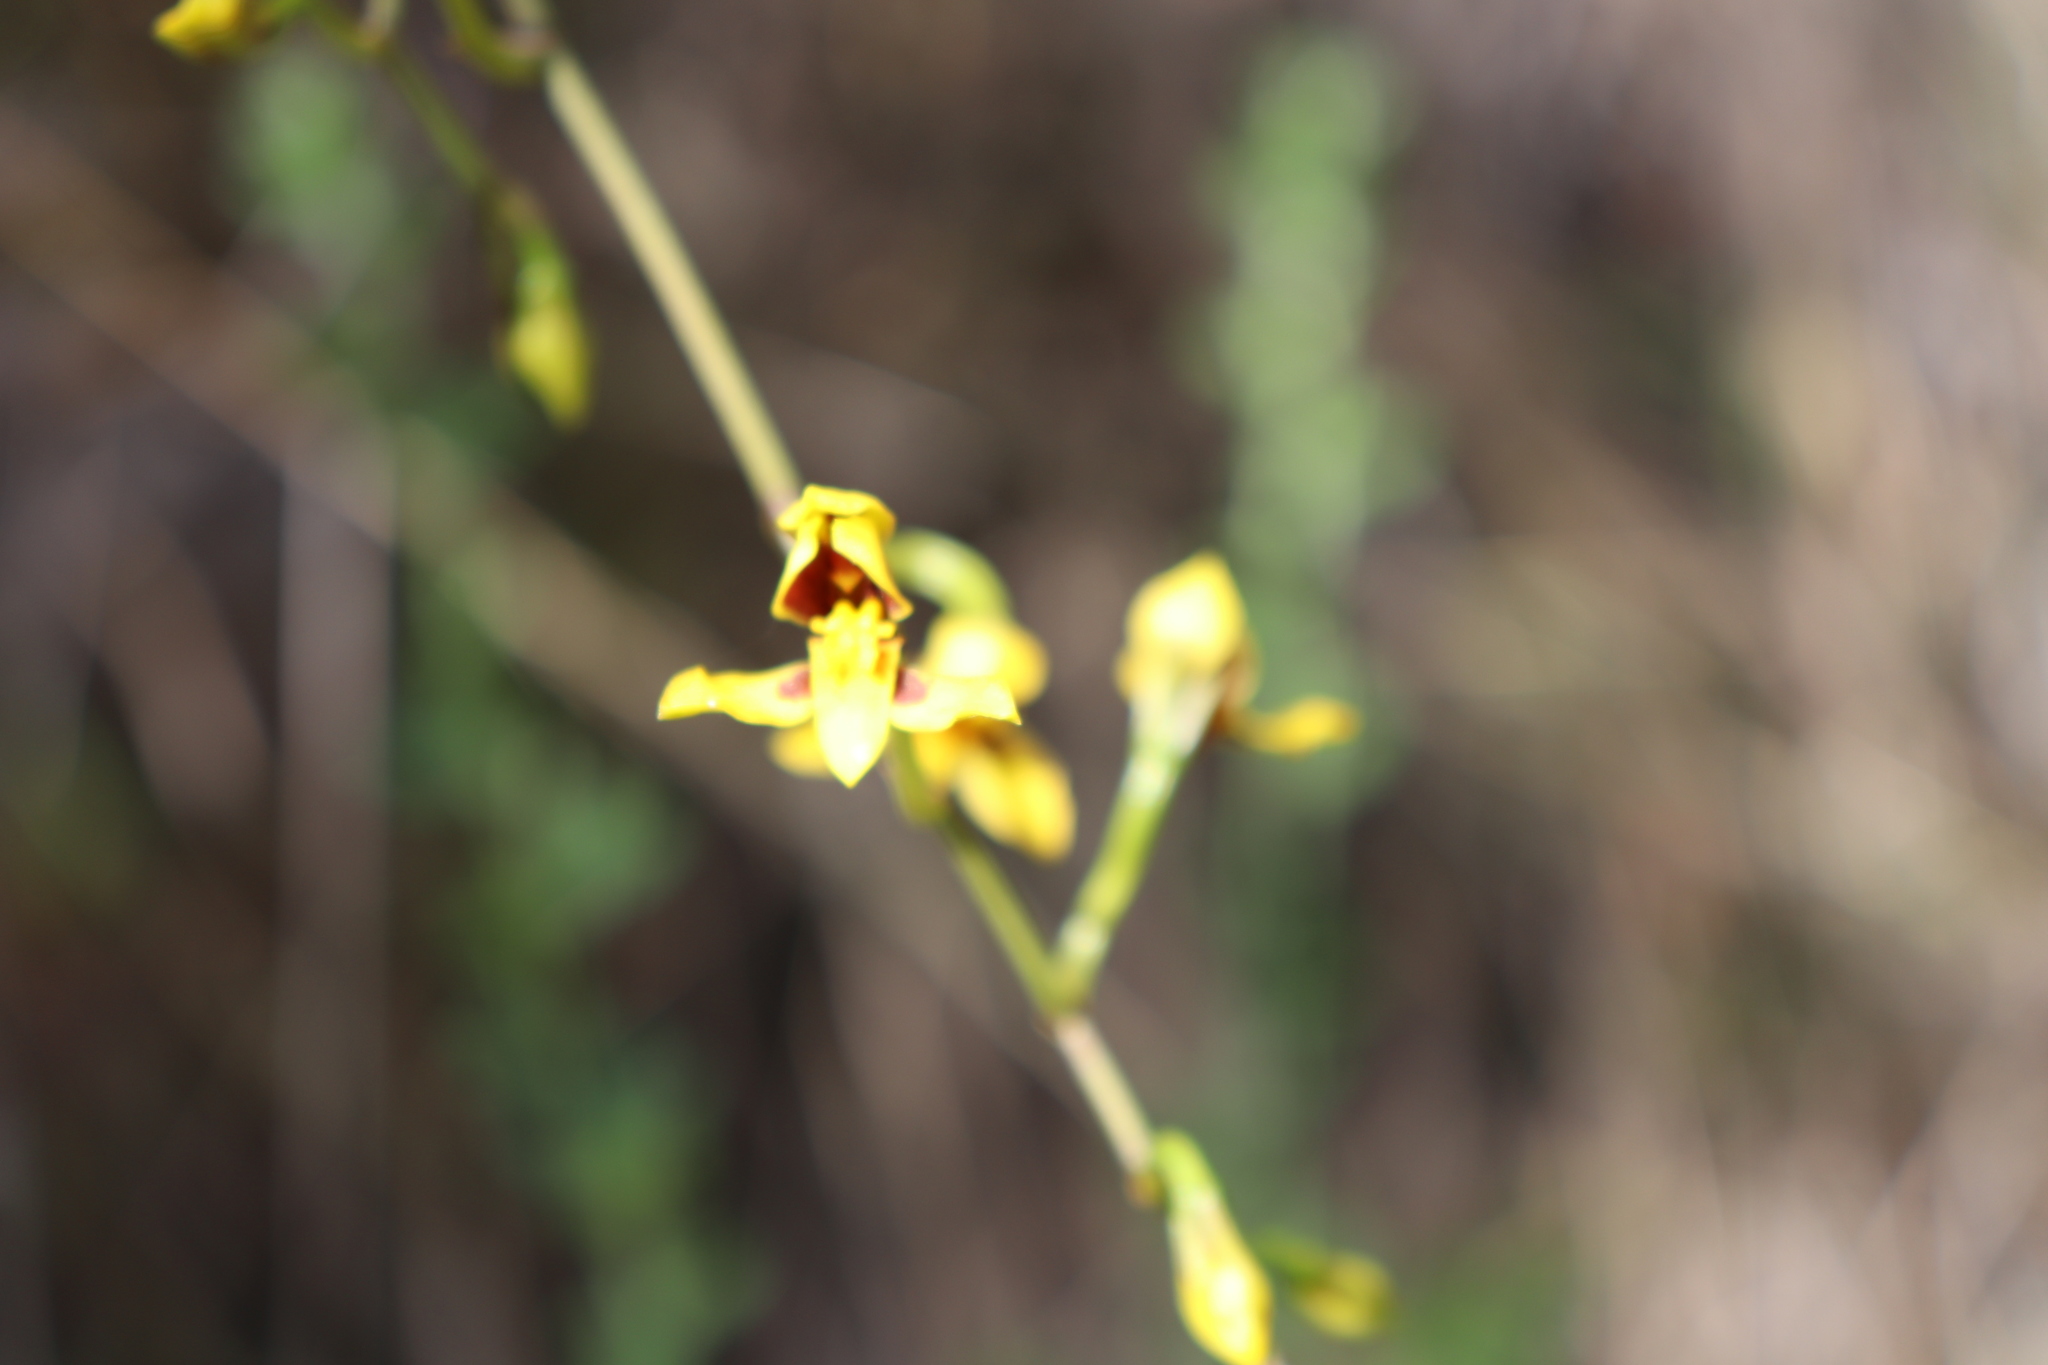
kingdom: Plantae
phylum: Tracheophyta
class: Liliopsida
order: Asparagales
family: Orchidaceae
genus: Cyrtochilum
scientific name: Cyrtochilum densiflorum
